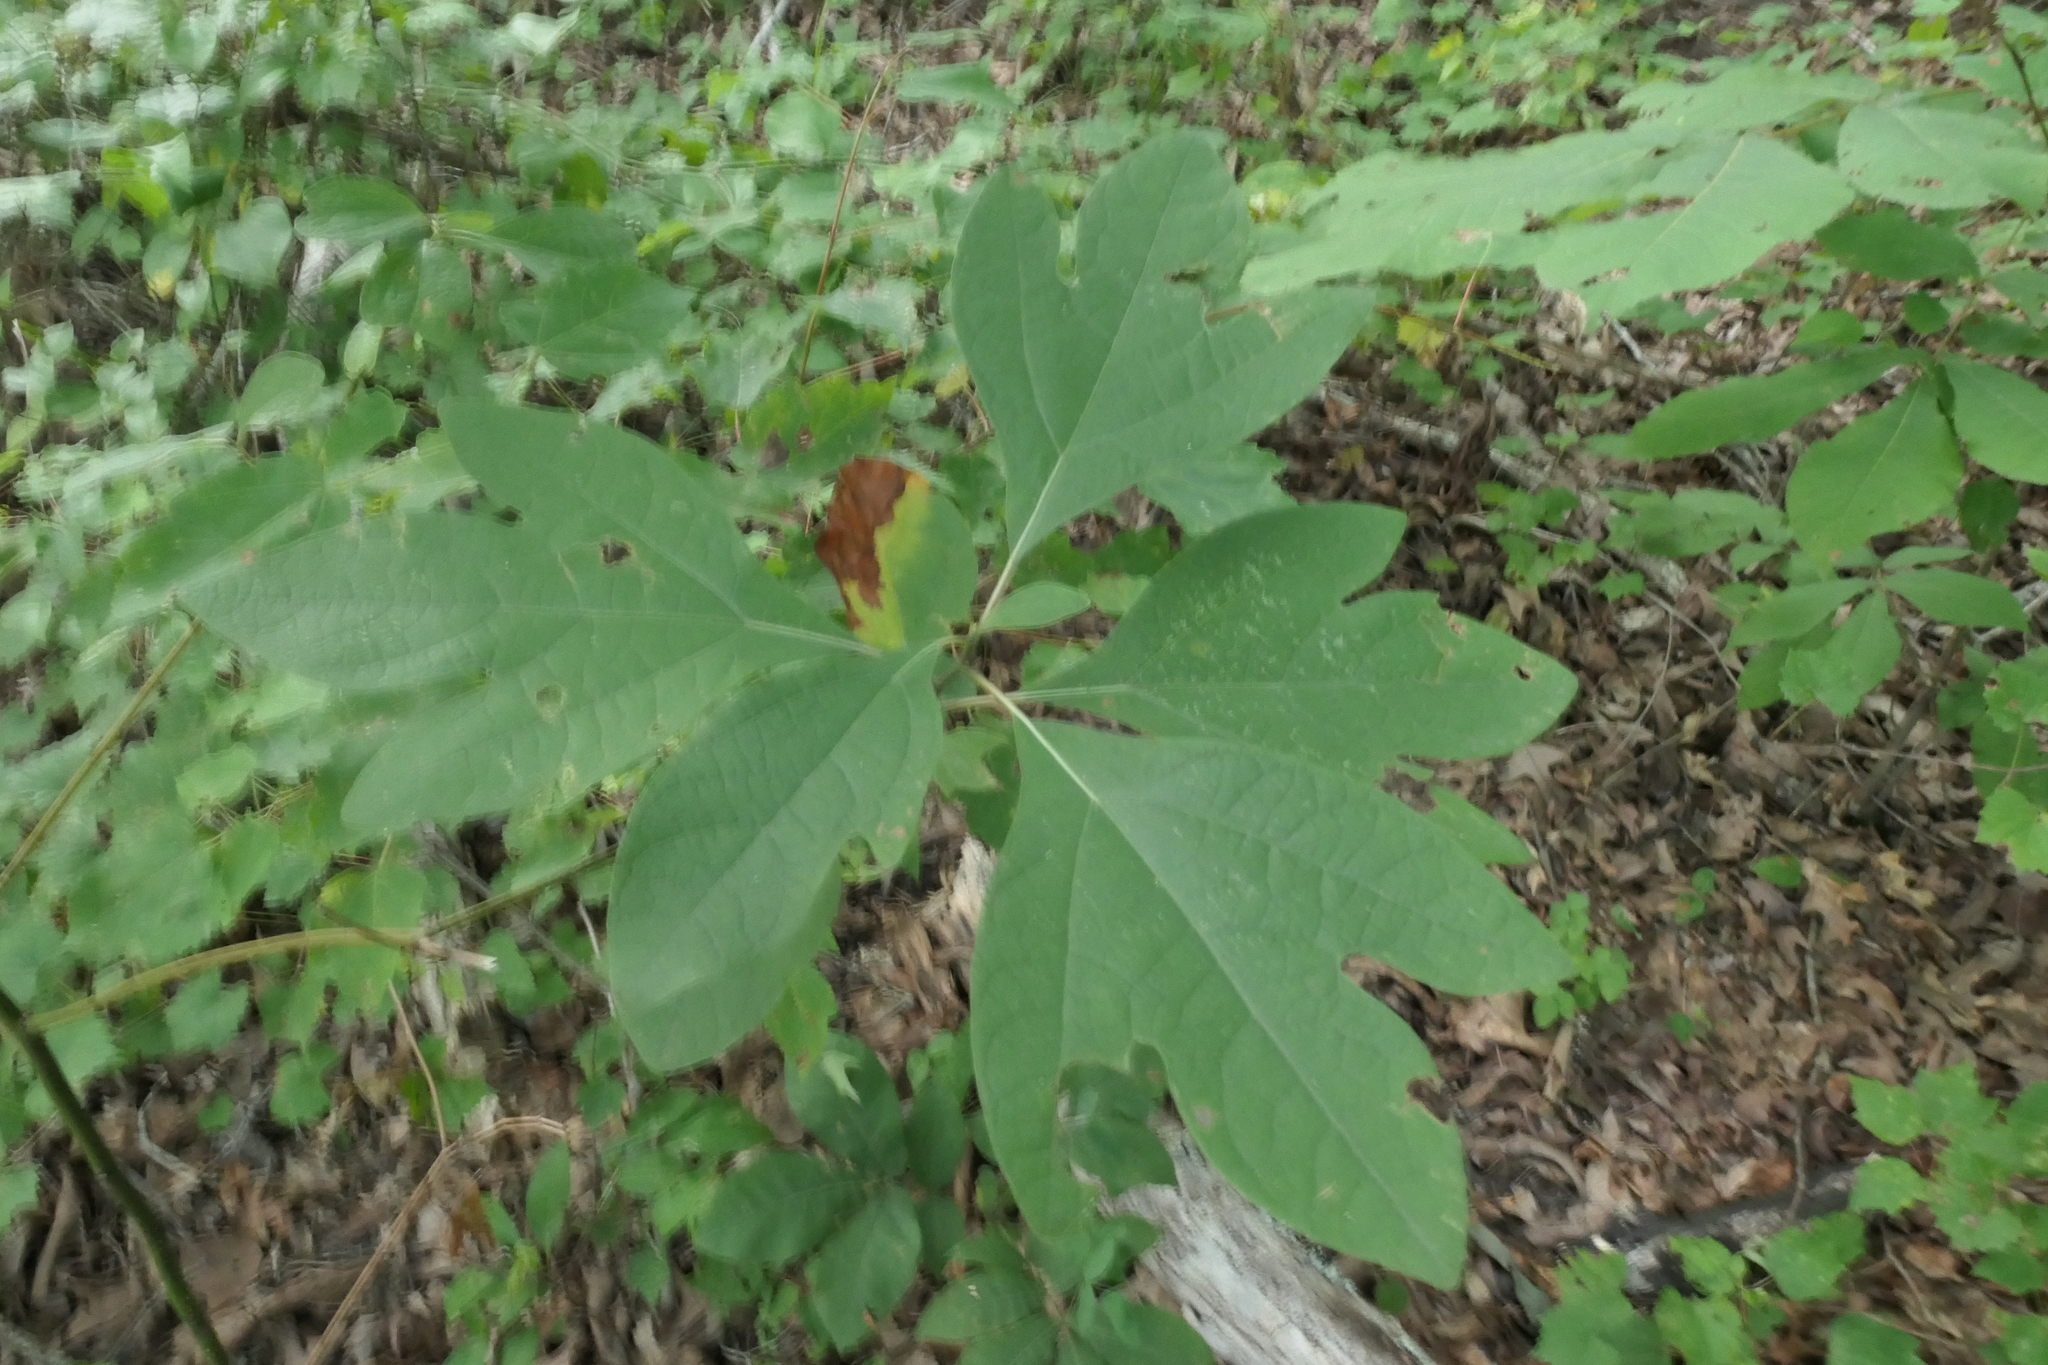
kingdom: Plantae
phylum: Tracheophyta
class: Magnoliopsida
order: Laurales
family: Lauraceae
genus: Sassafras
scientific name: Sassafras albidum
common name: Sassafras
